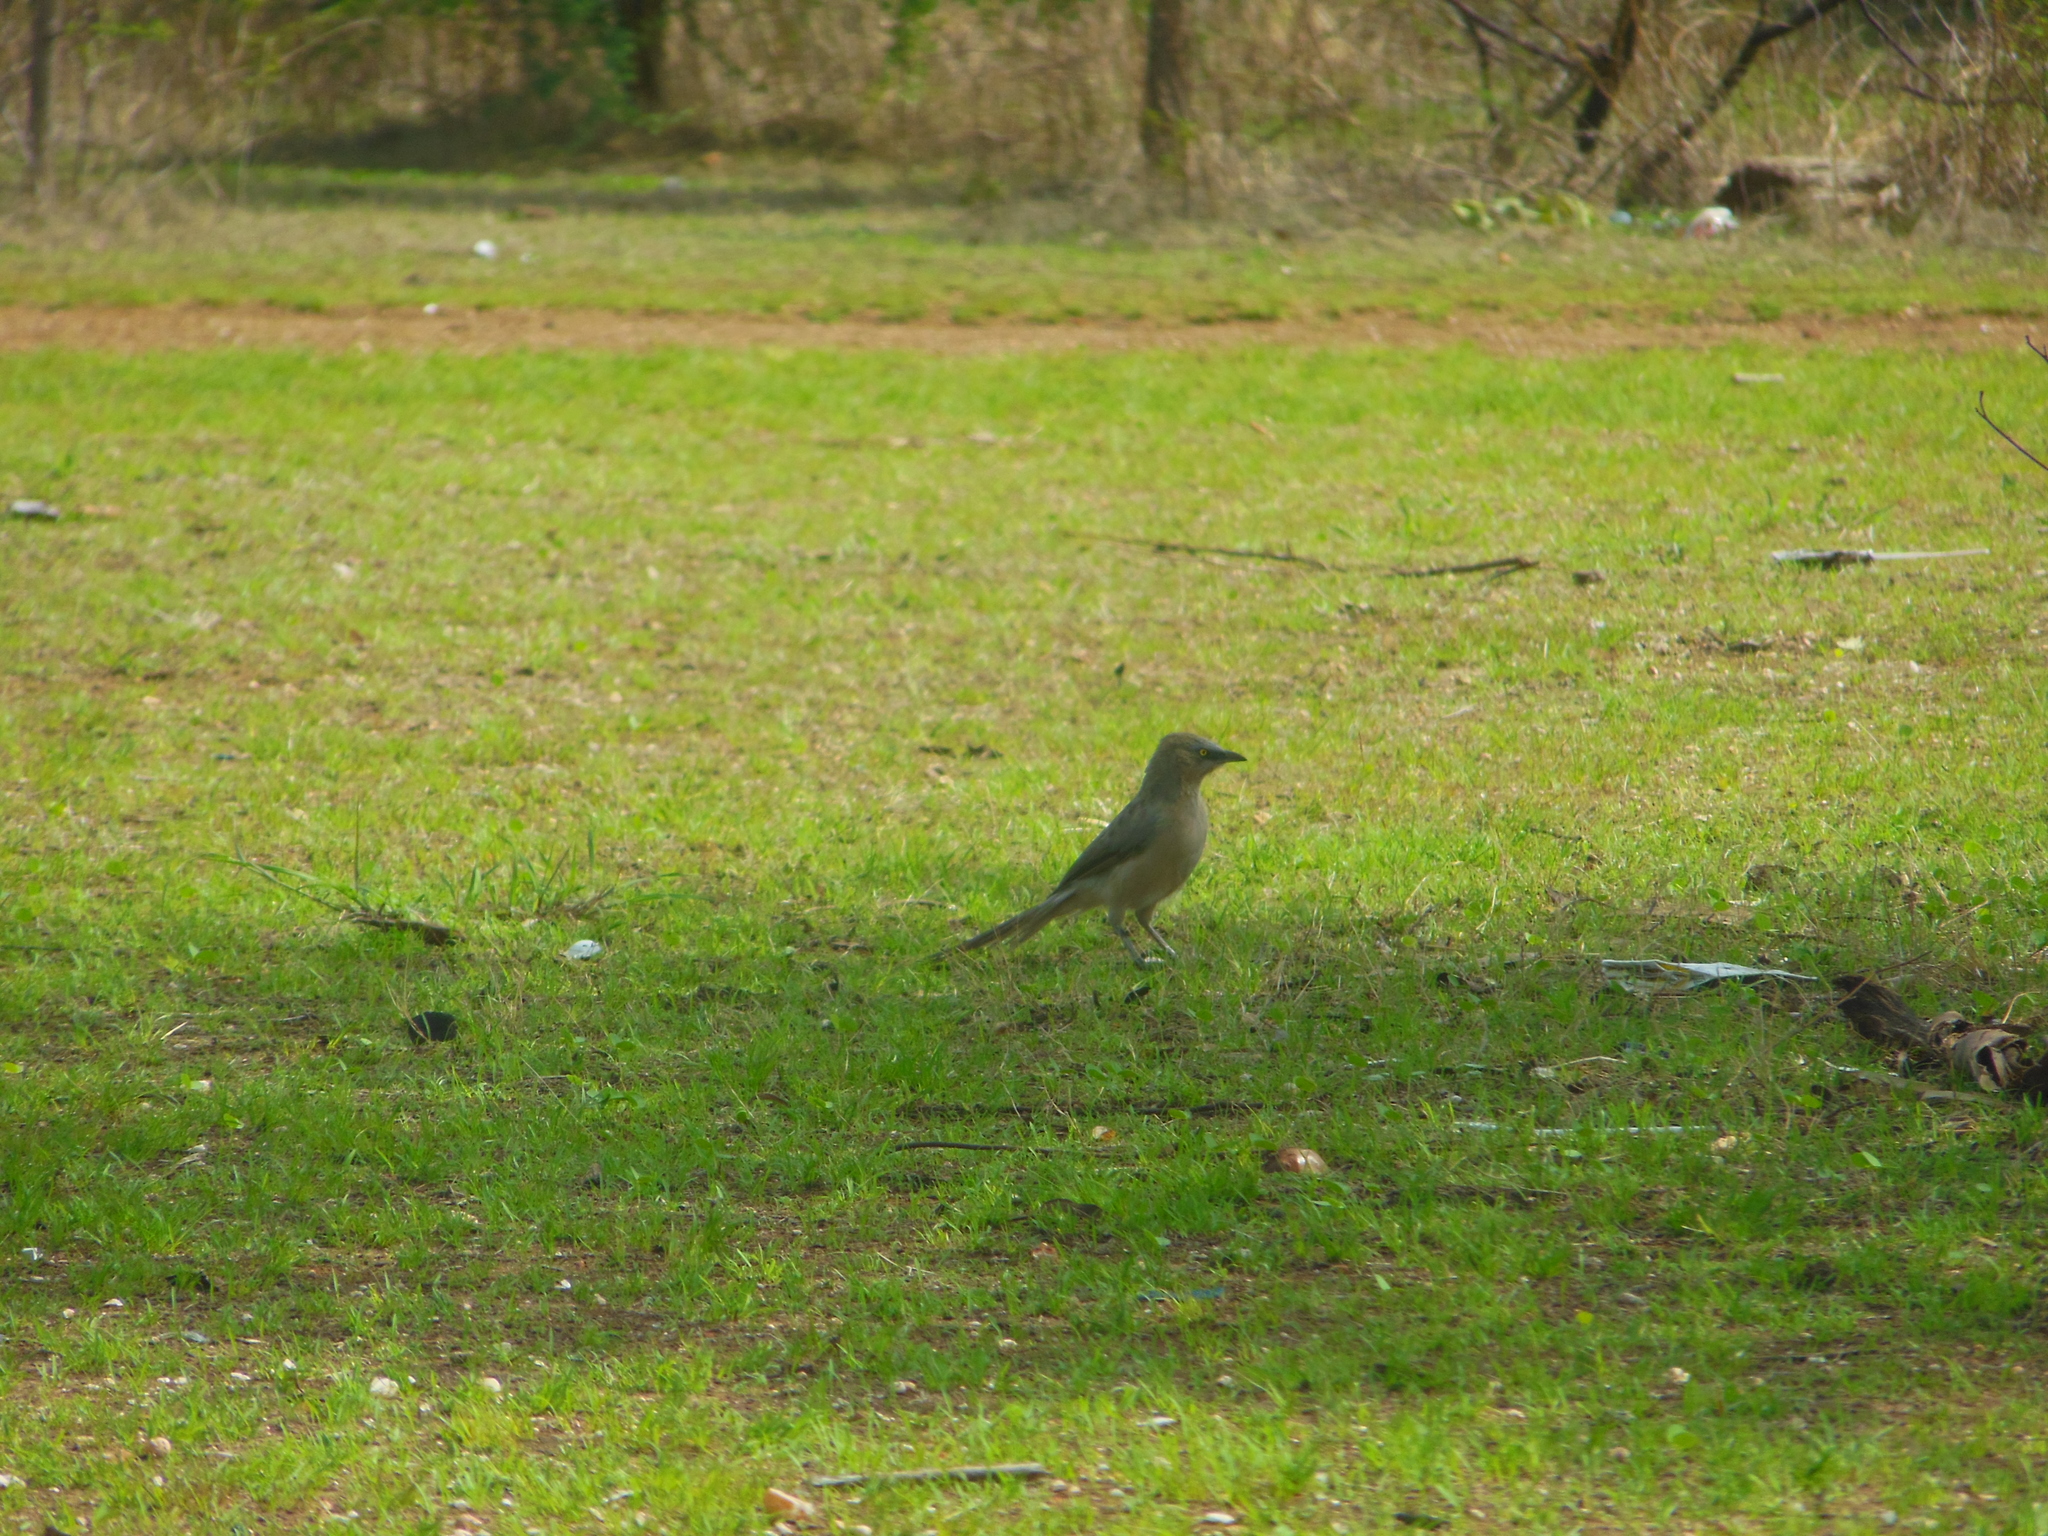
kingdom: Animalia
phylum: Chordata
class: Aves
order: Passeriformes
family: Leiothrichidae
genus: Turdoides
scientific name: Turdoides malcolmi
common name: Large grey babbler
